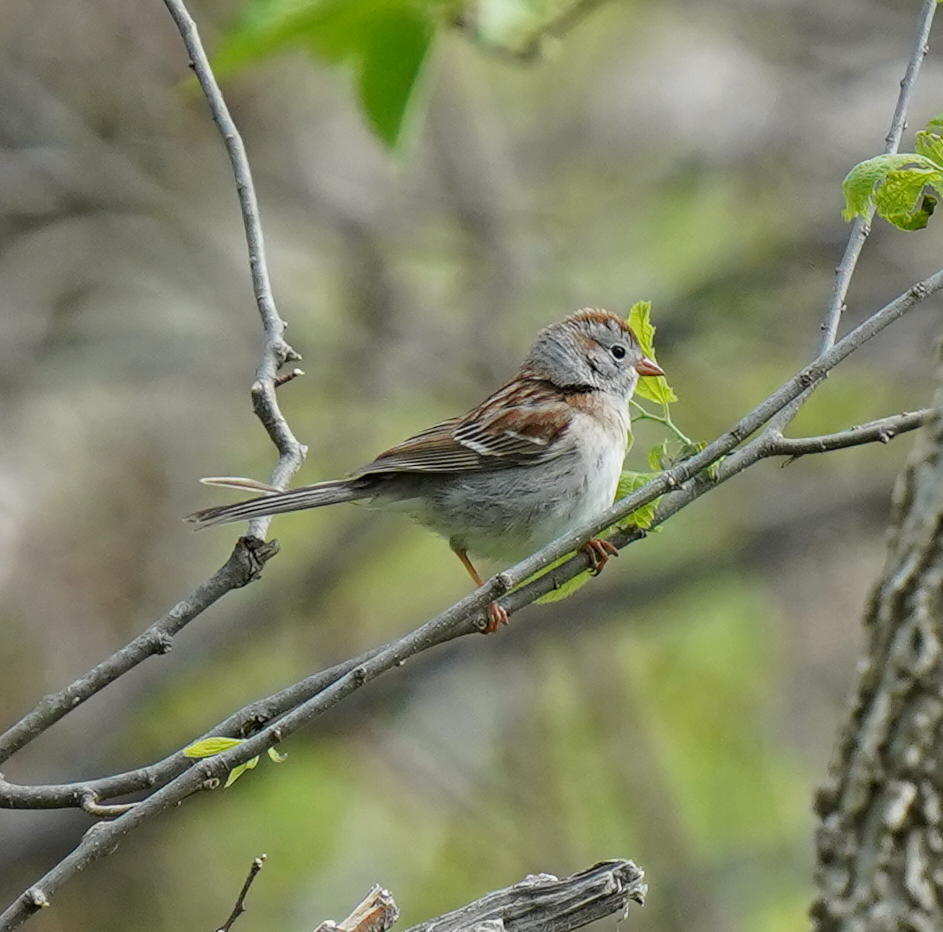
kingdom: Animalia
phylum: Chordata
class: Aves
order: Passeriformes
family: Passerellidae
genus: Spizella
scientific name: Spizella pusilla
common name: Field sparrow
